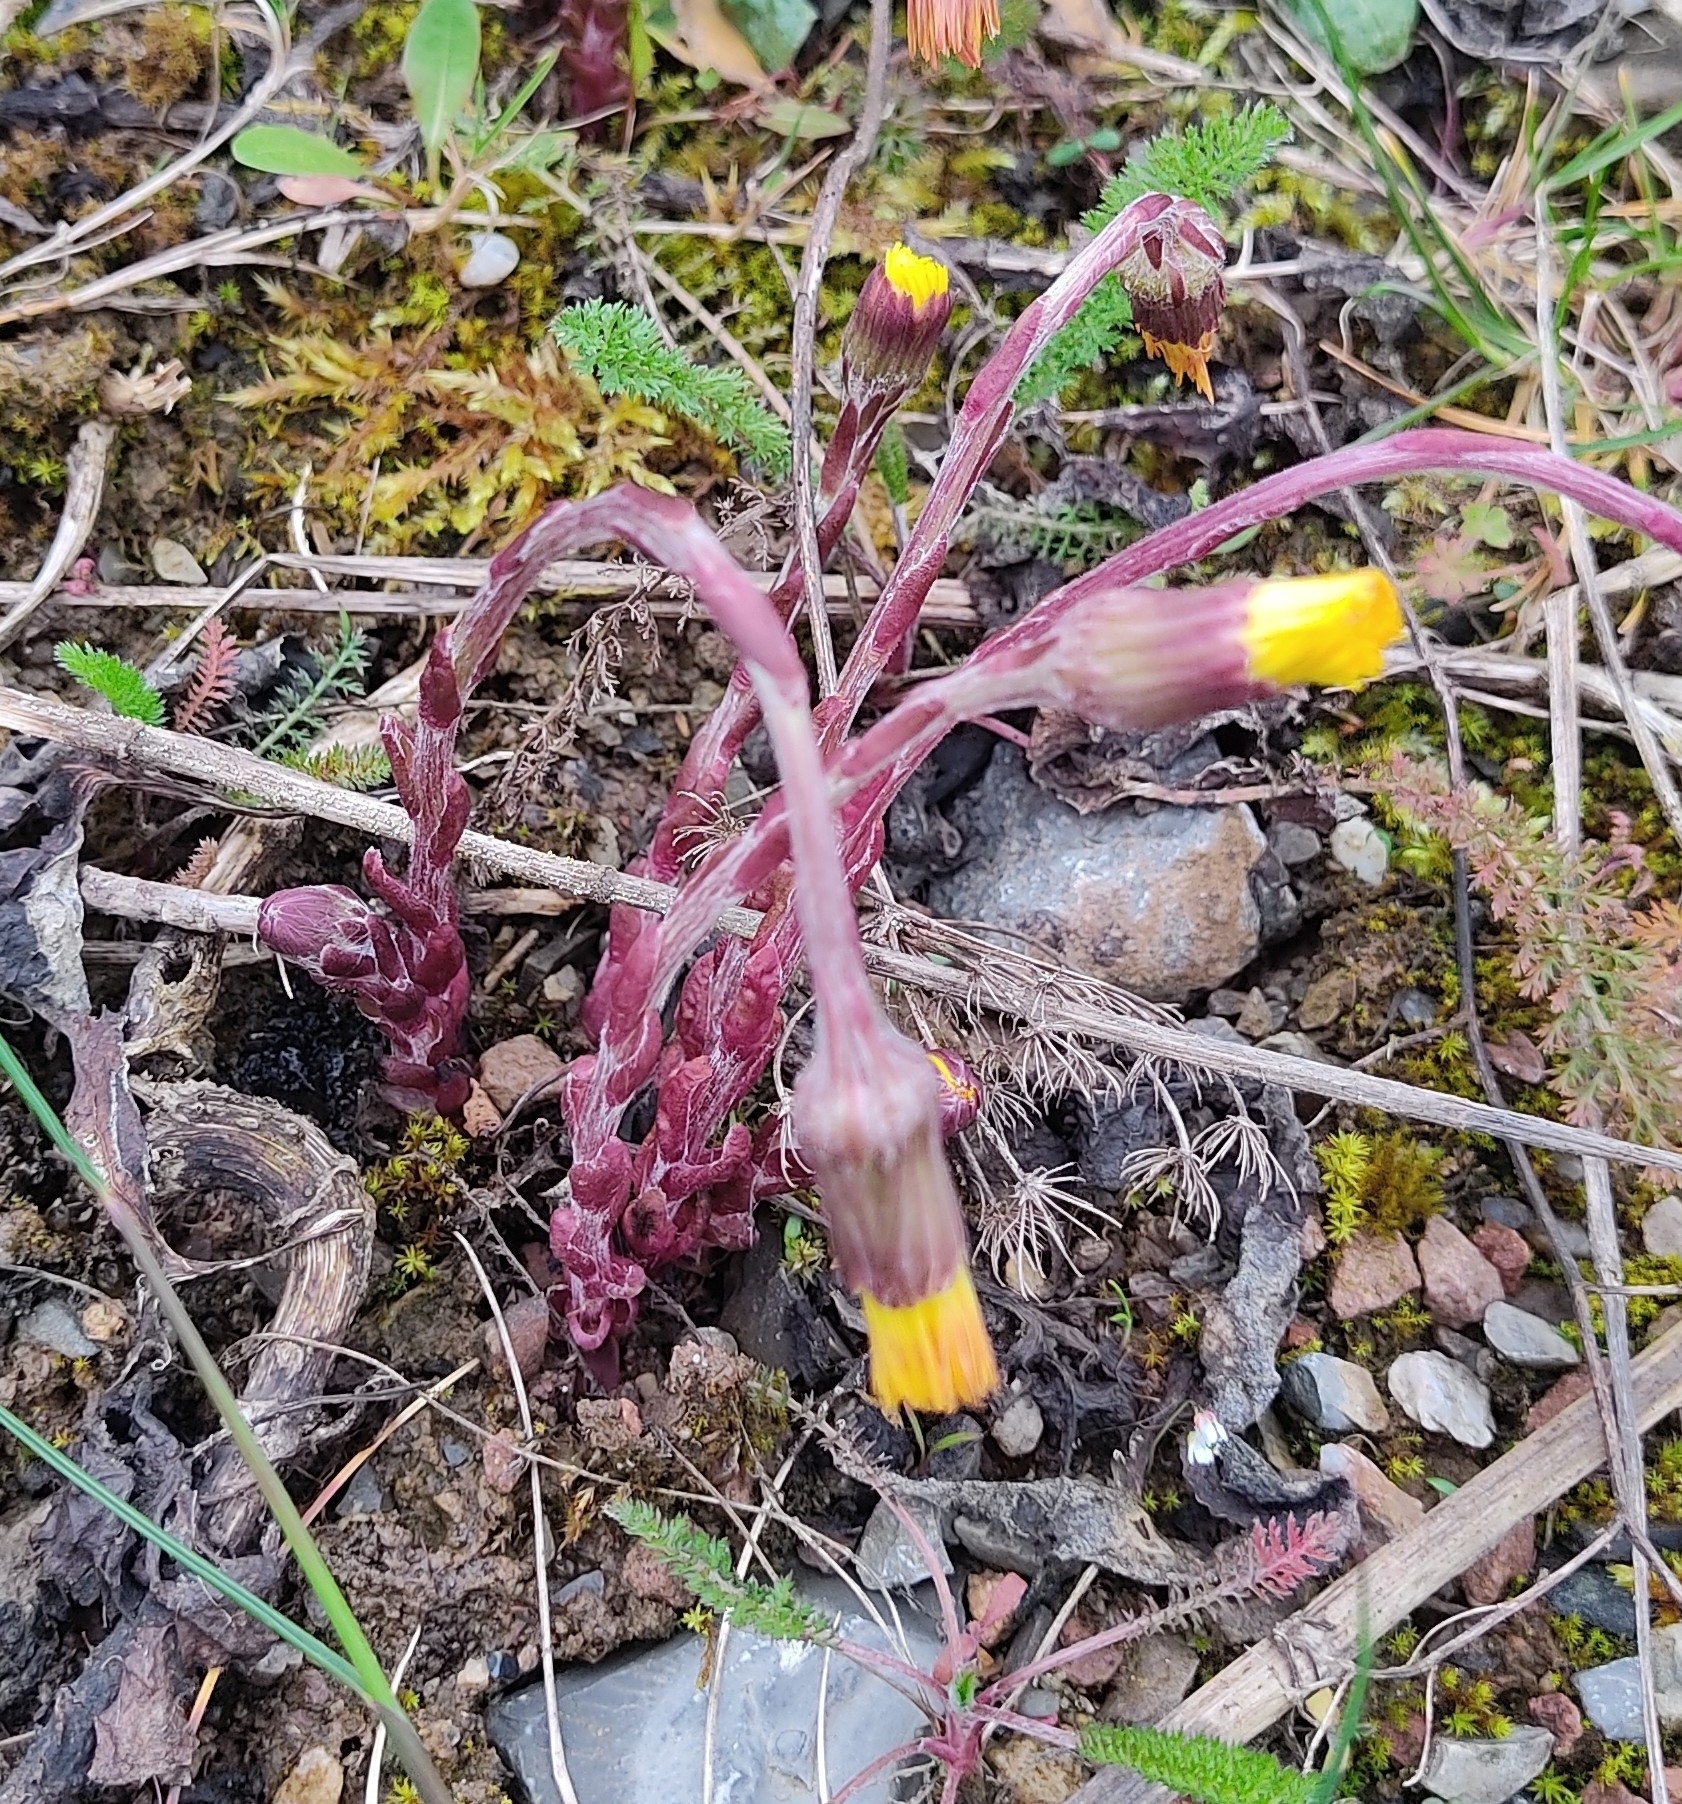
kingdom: Plantae
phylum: Tracheophyta
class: Magnoliopsida
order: Asterales
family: Asteraceae
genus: Tussilago
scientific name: Tussilago farfara
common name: Coltsfoot
